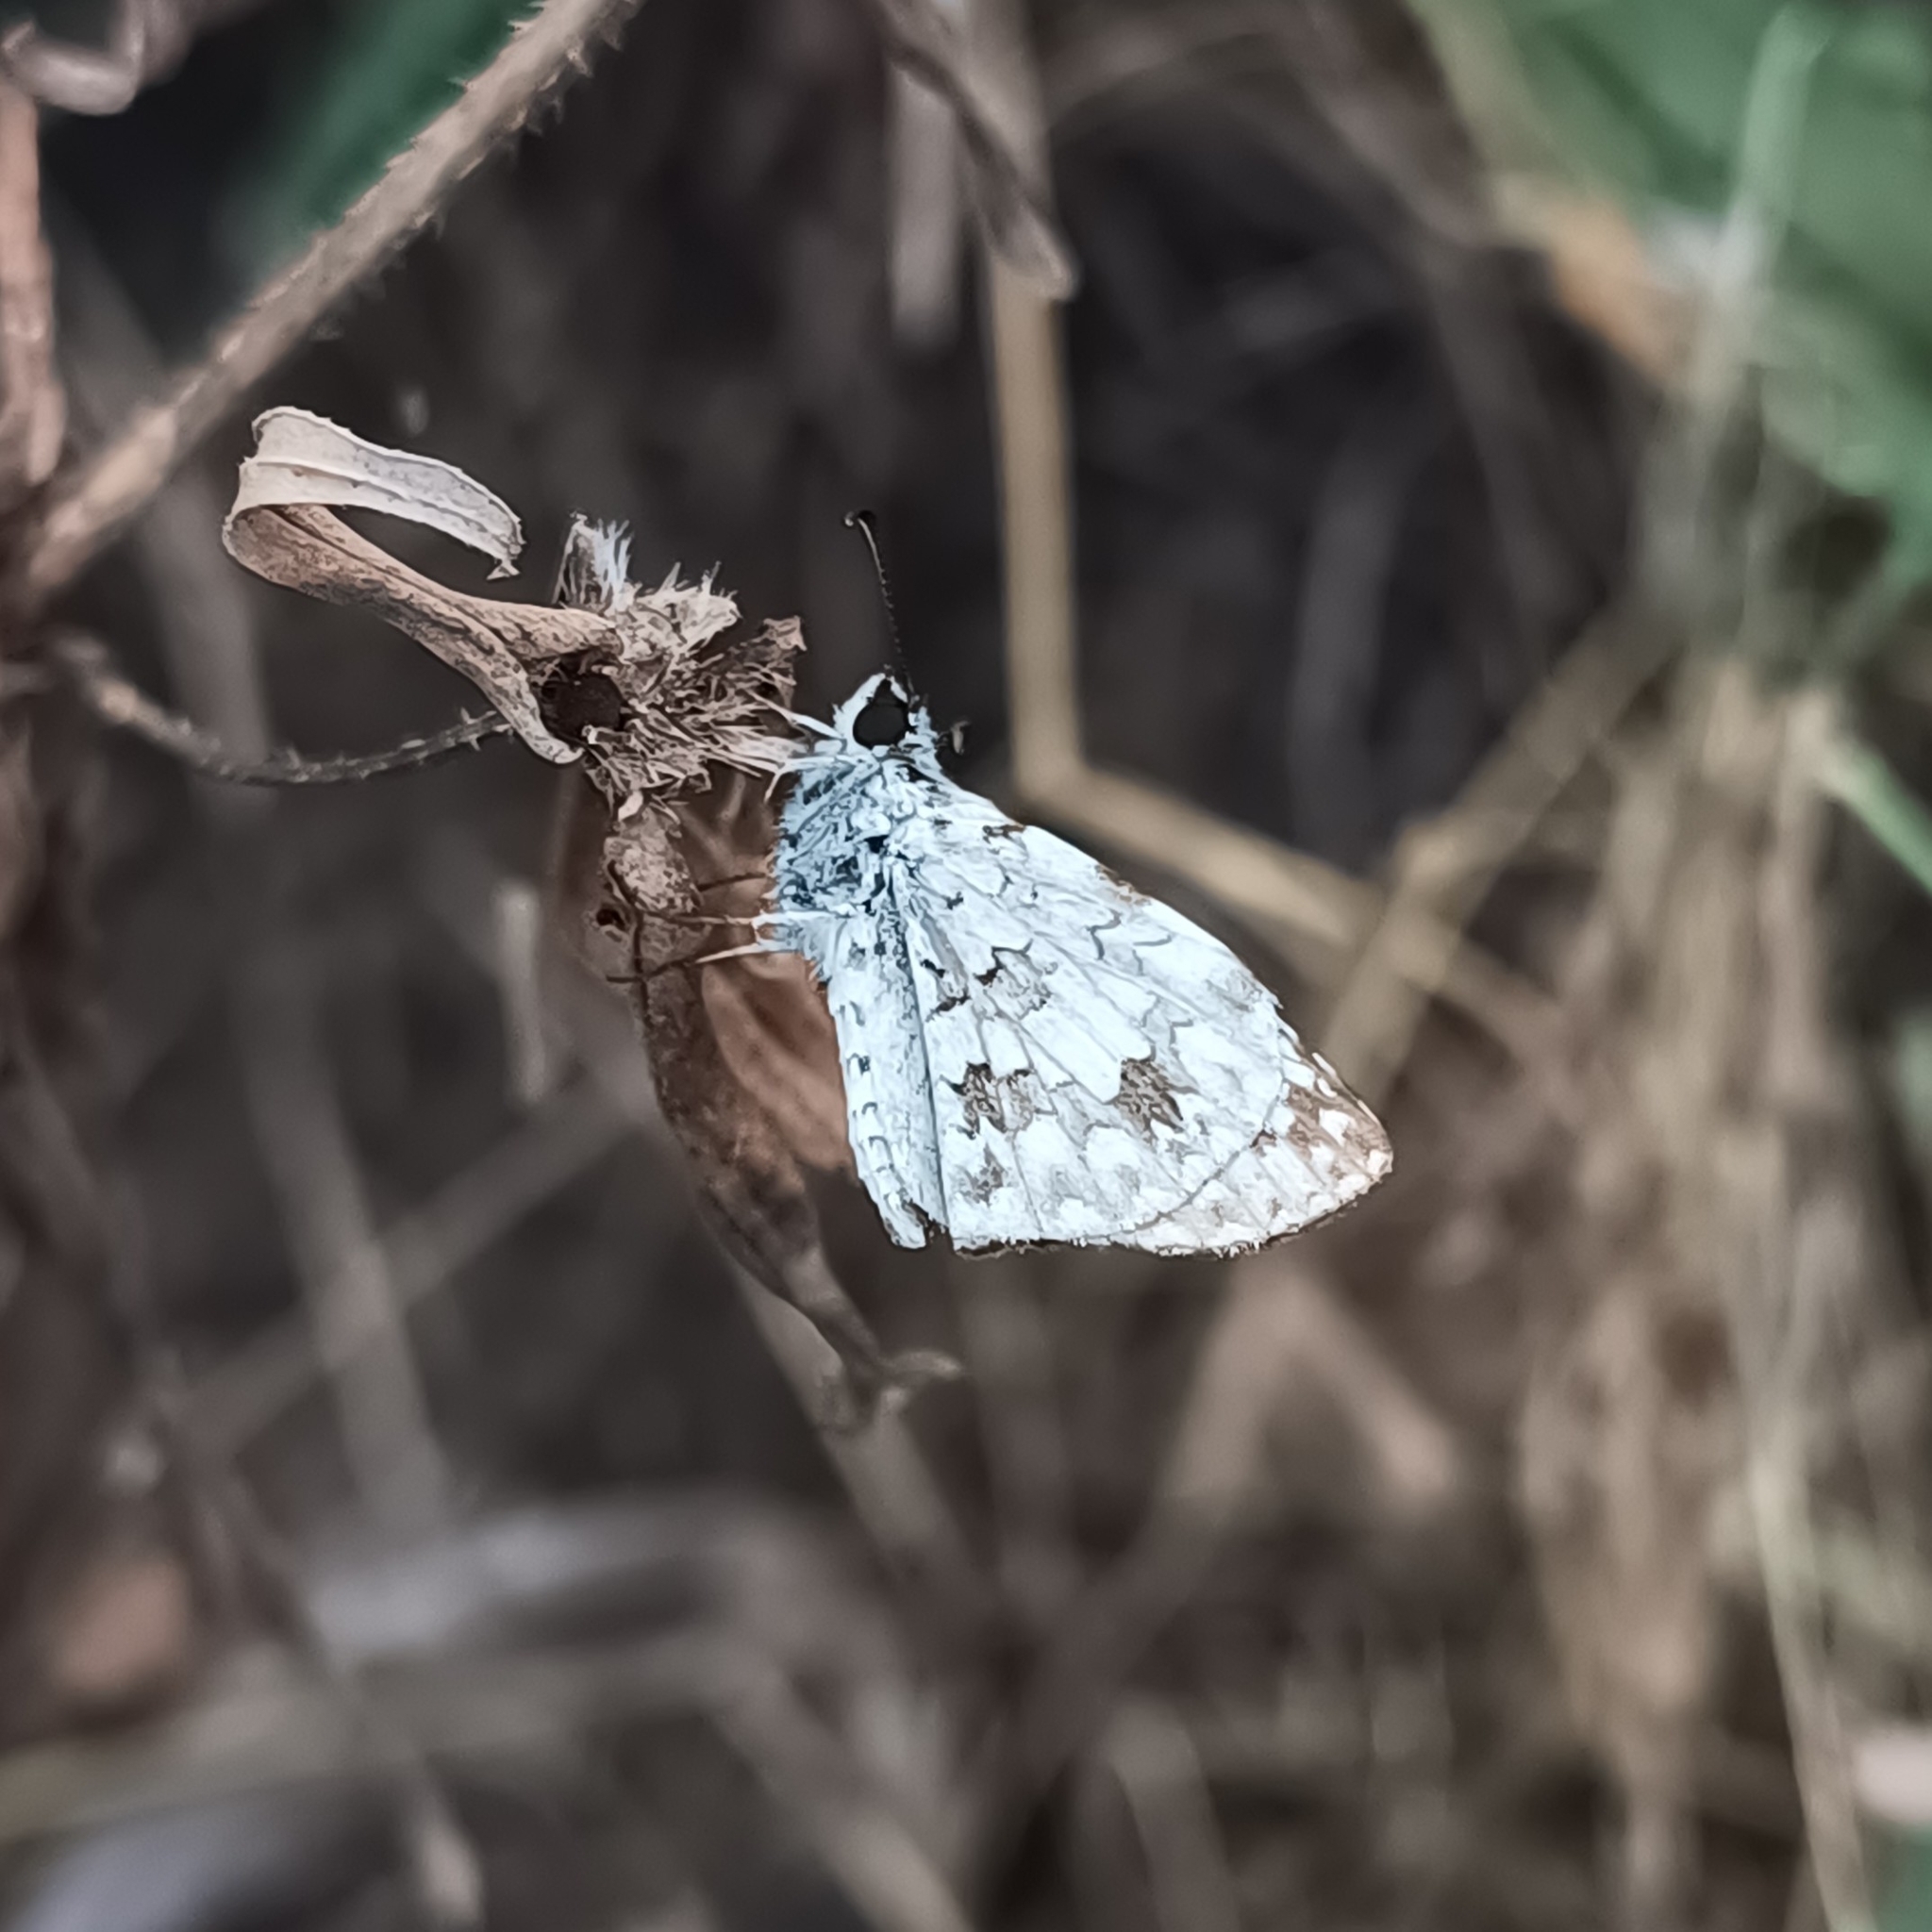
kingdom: Animalia
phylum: Arthropoda
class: Insecta
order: Lepidoptera
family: Hesperiidae
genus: Pyrgus
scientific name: Pyrgus oileus
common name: Tropical checkered-skipper
